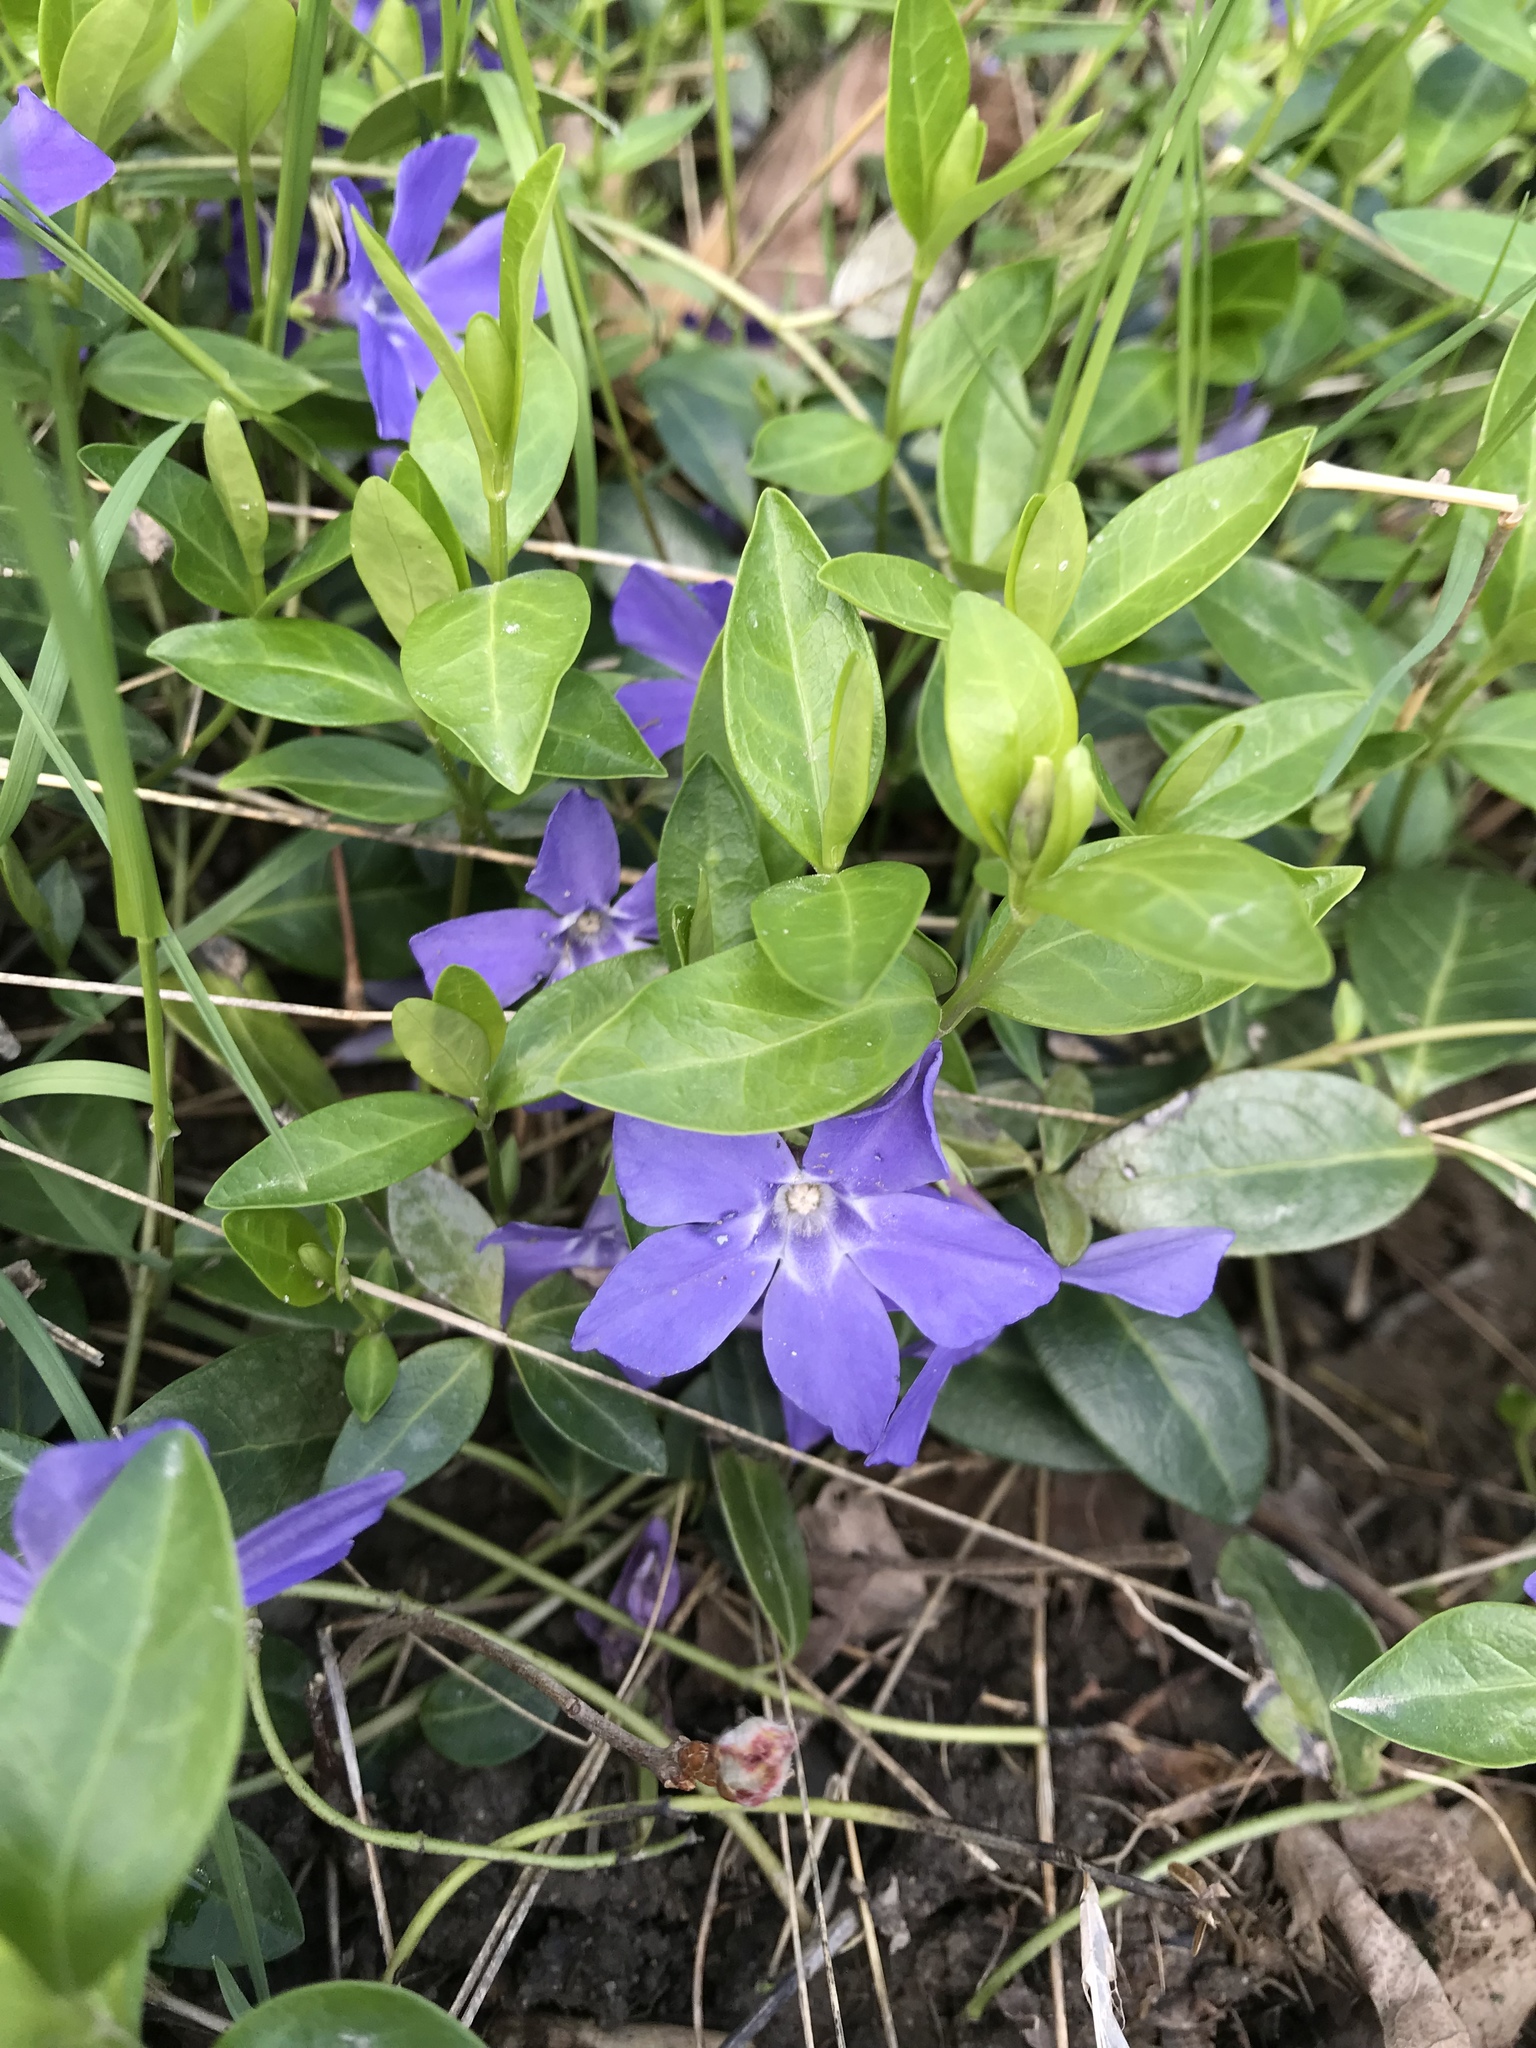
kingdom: Plantae
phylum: Tracheophyta
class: Magnoliopsida
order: Gentianales
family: Apocynaceae
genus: Vinca
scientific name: Vinca minor
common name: Lesser periwinkle
